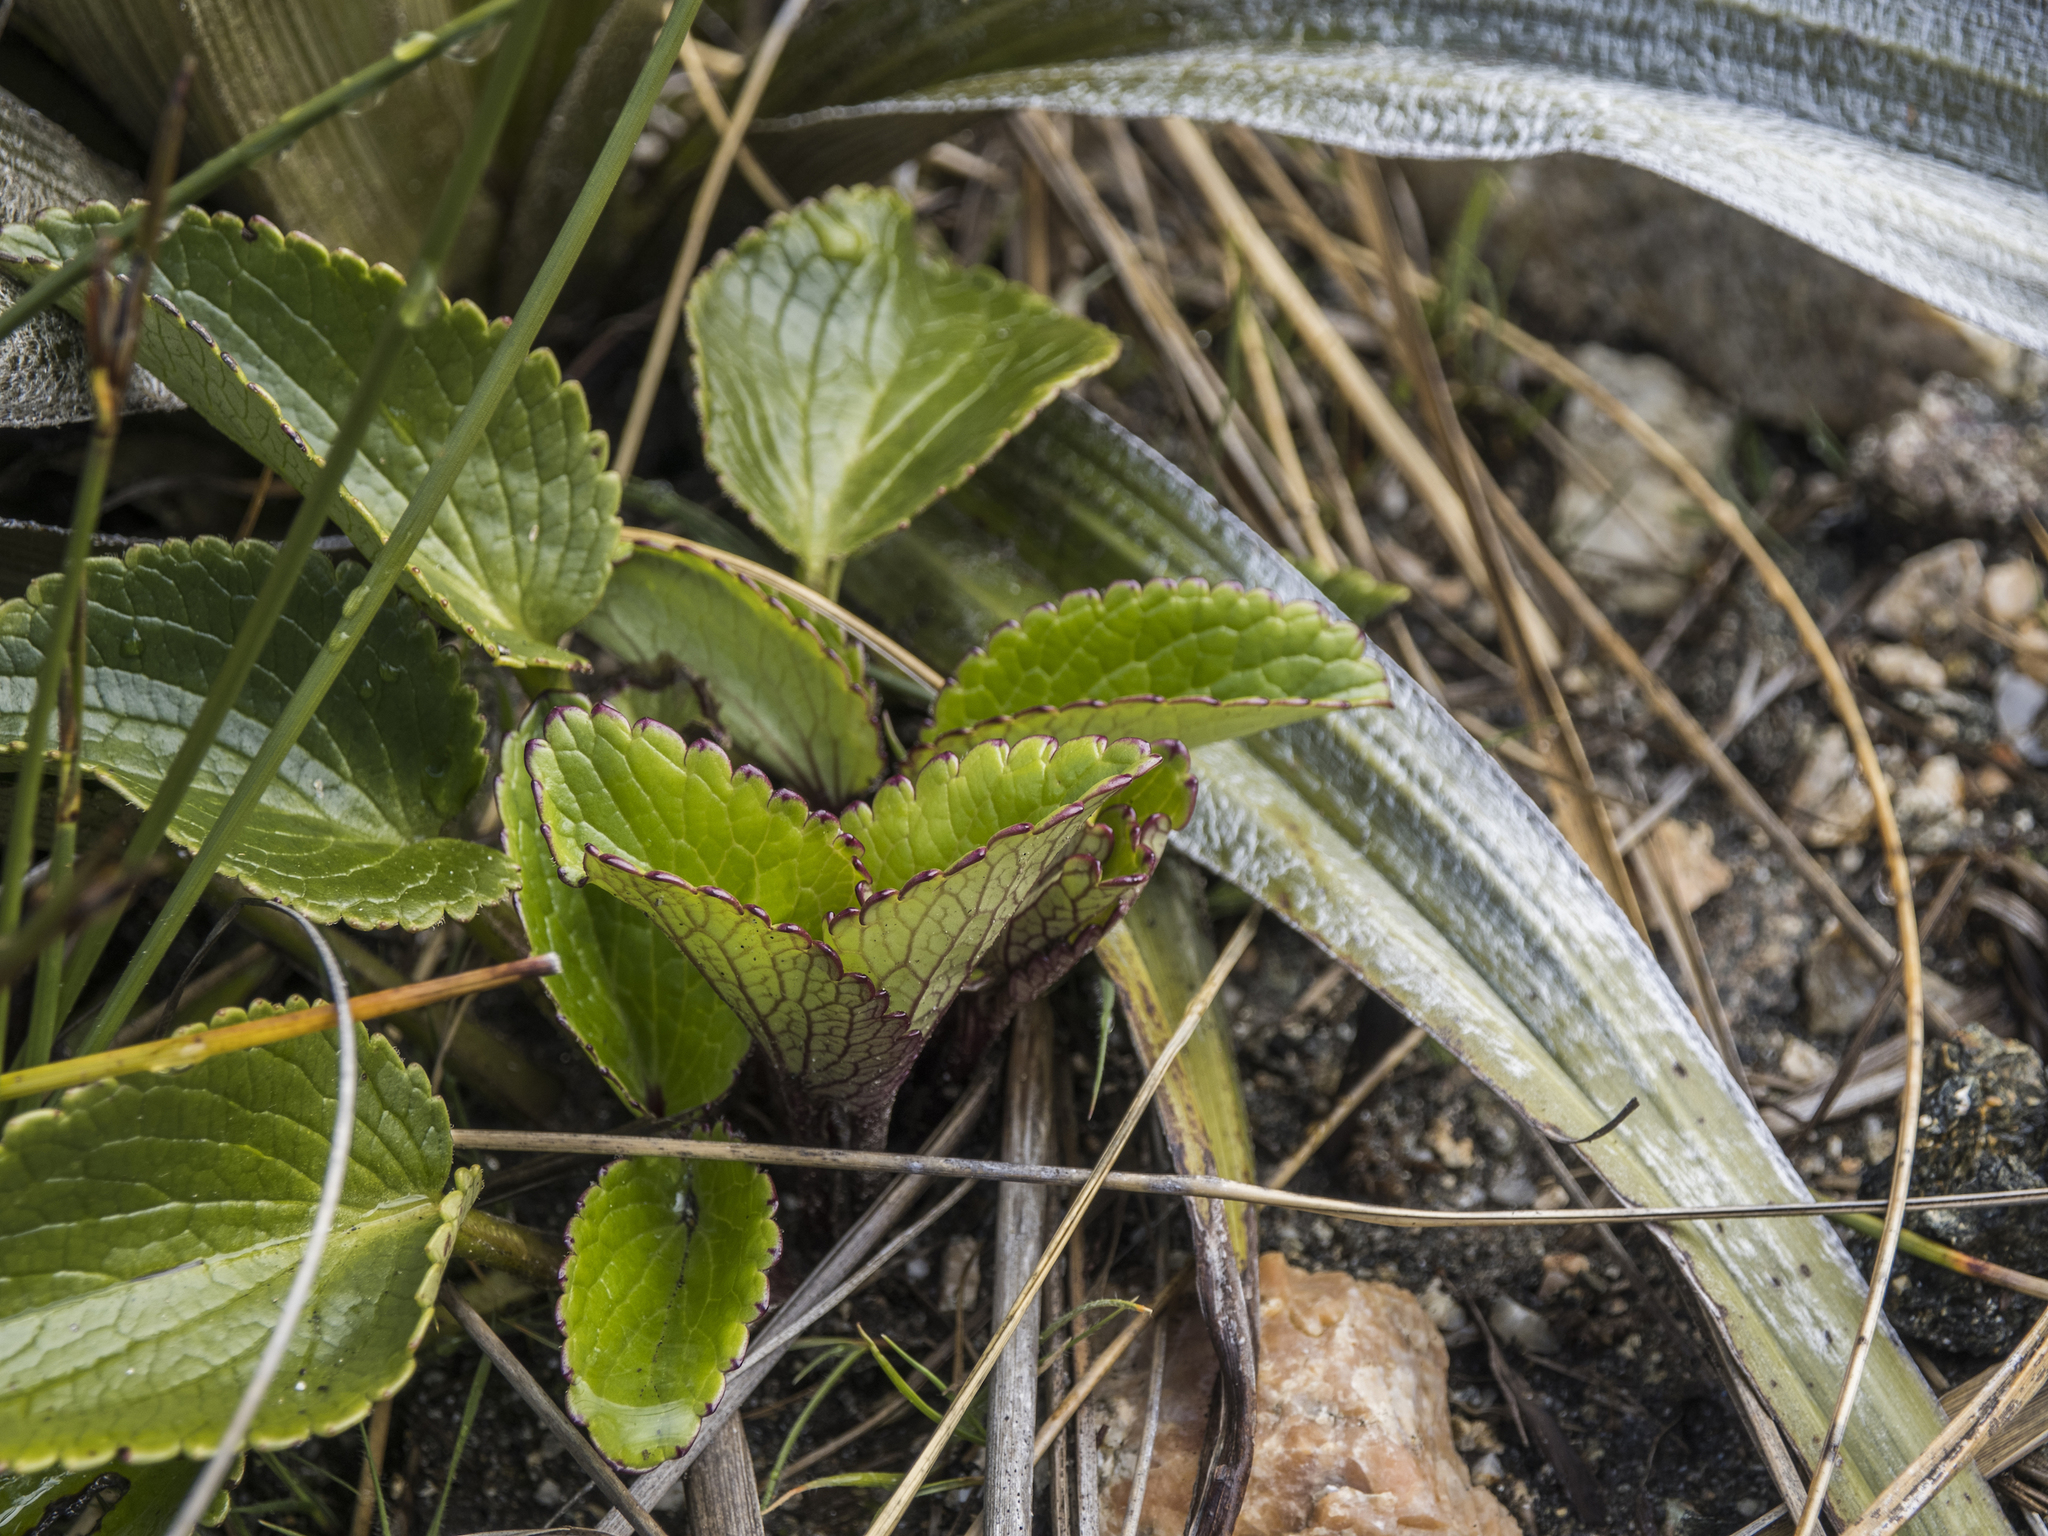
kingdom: Plantae
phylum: Tracheophyta
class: Magnoliopsida
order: Lamiales
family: Plantaginaceae
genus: Ourisia
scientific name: Ourisia macrocarpa
